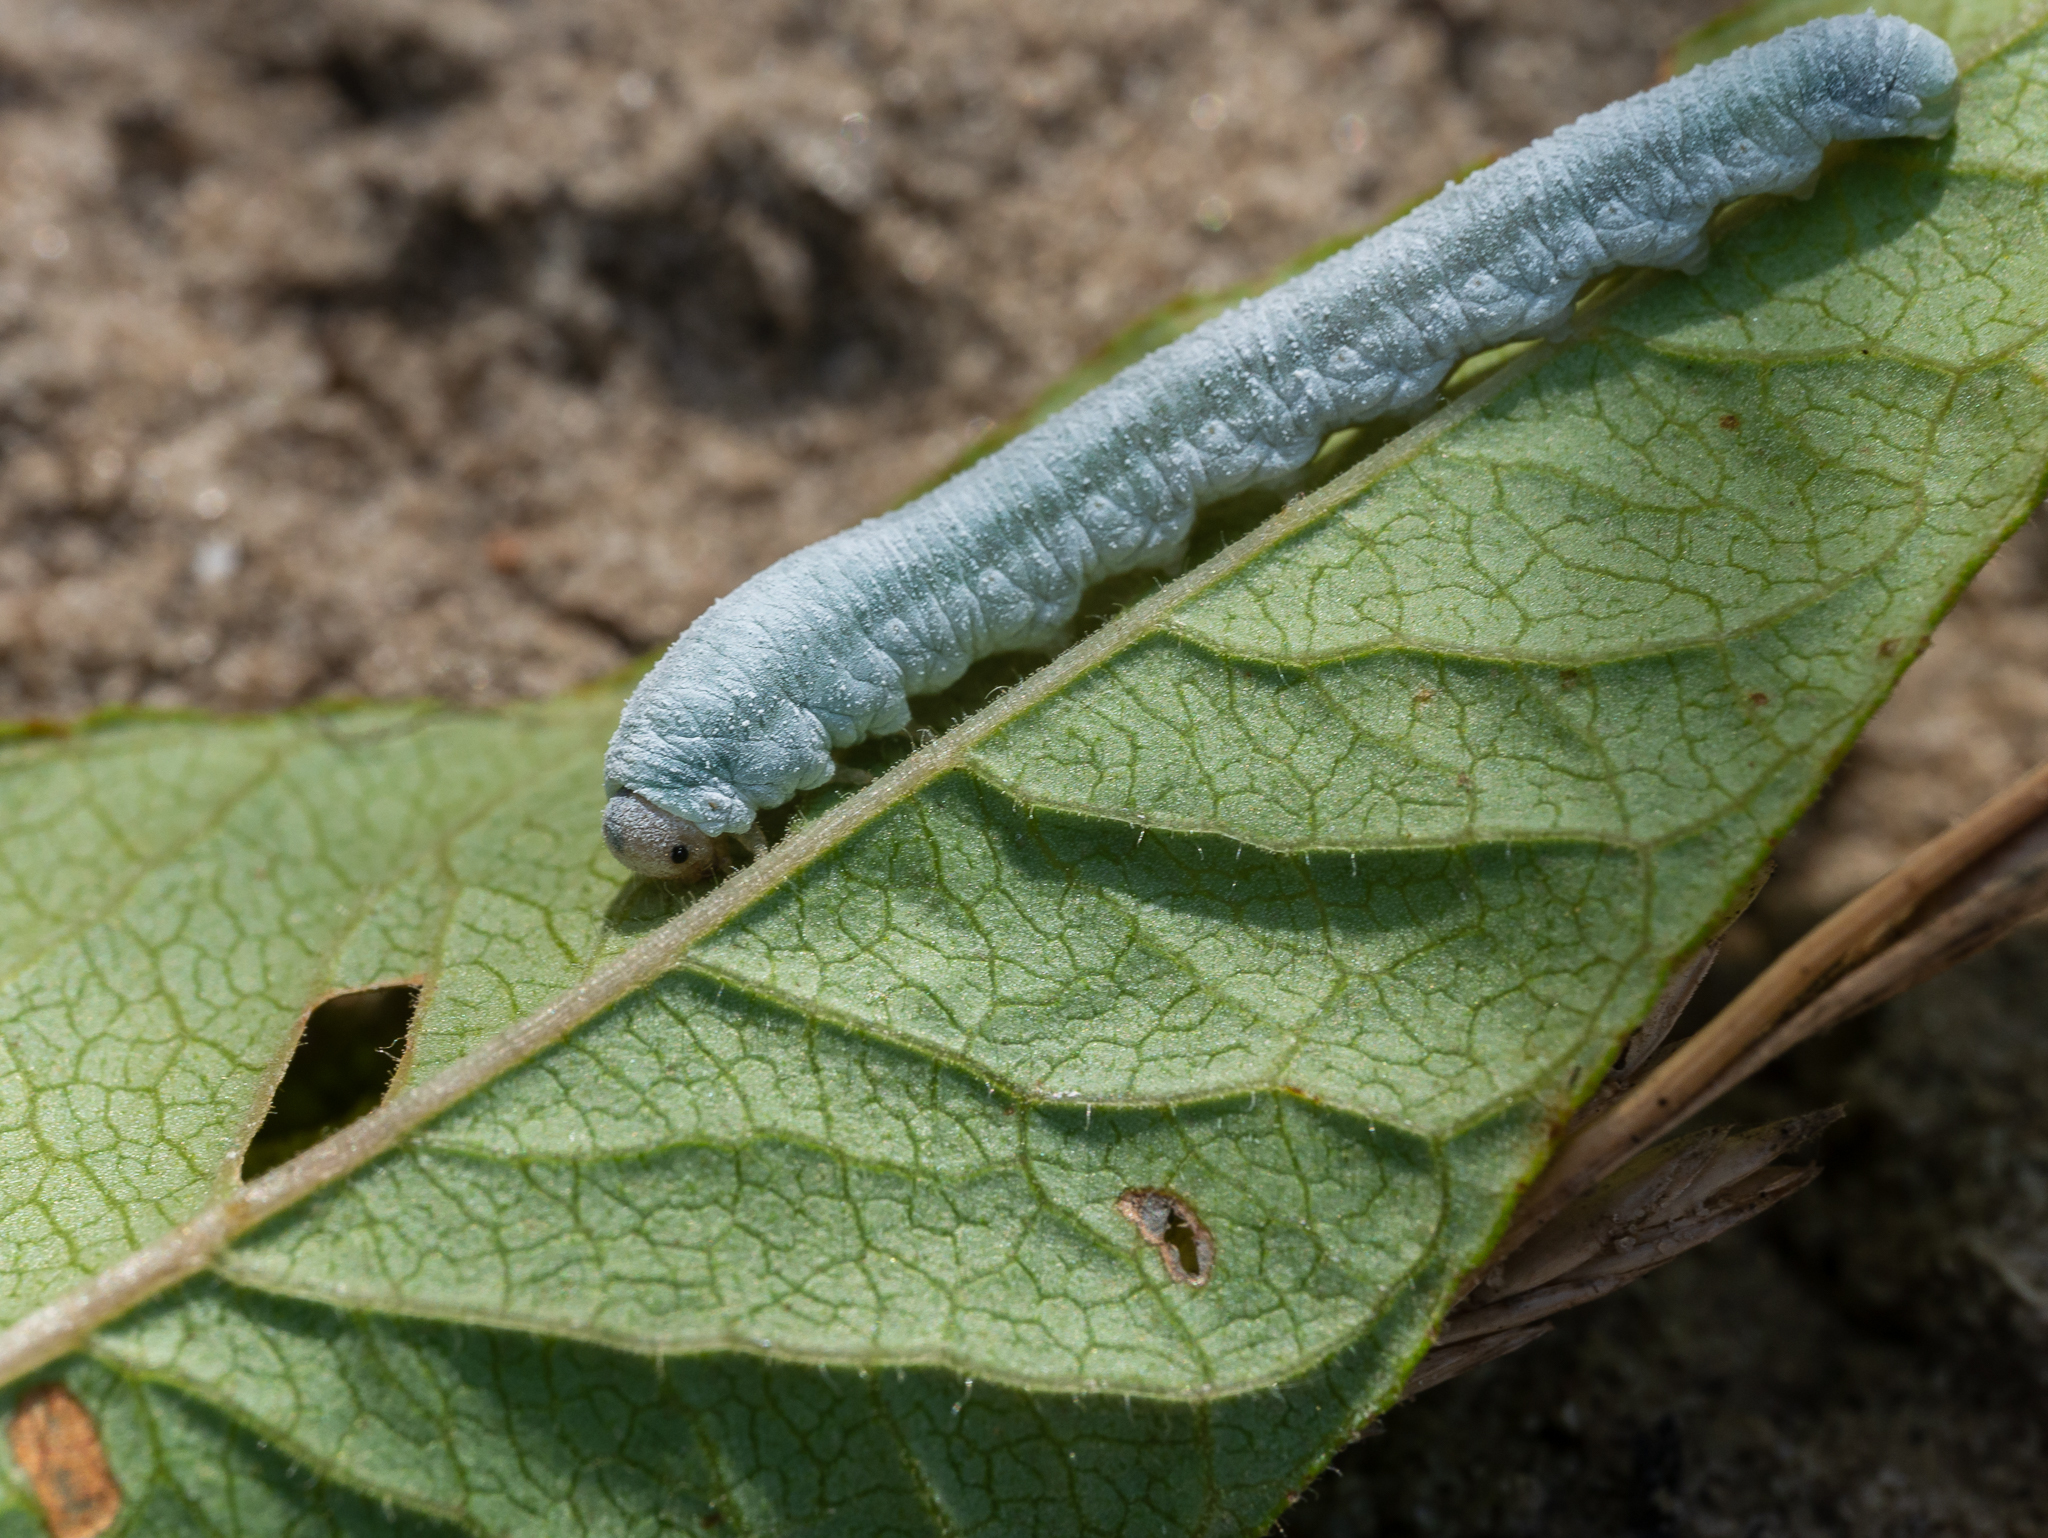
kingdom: Animalia
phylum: Arthropoda
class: Insecta
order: Hymenoptera
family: Tenthredinidae
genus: Monostegia
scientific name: Monostegia abdominalis
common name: Tenthredid wasp
